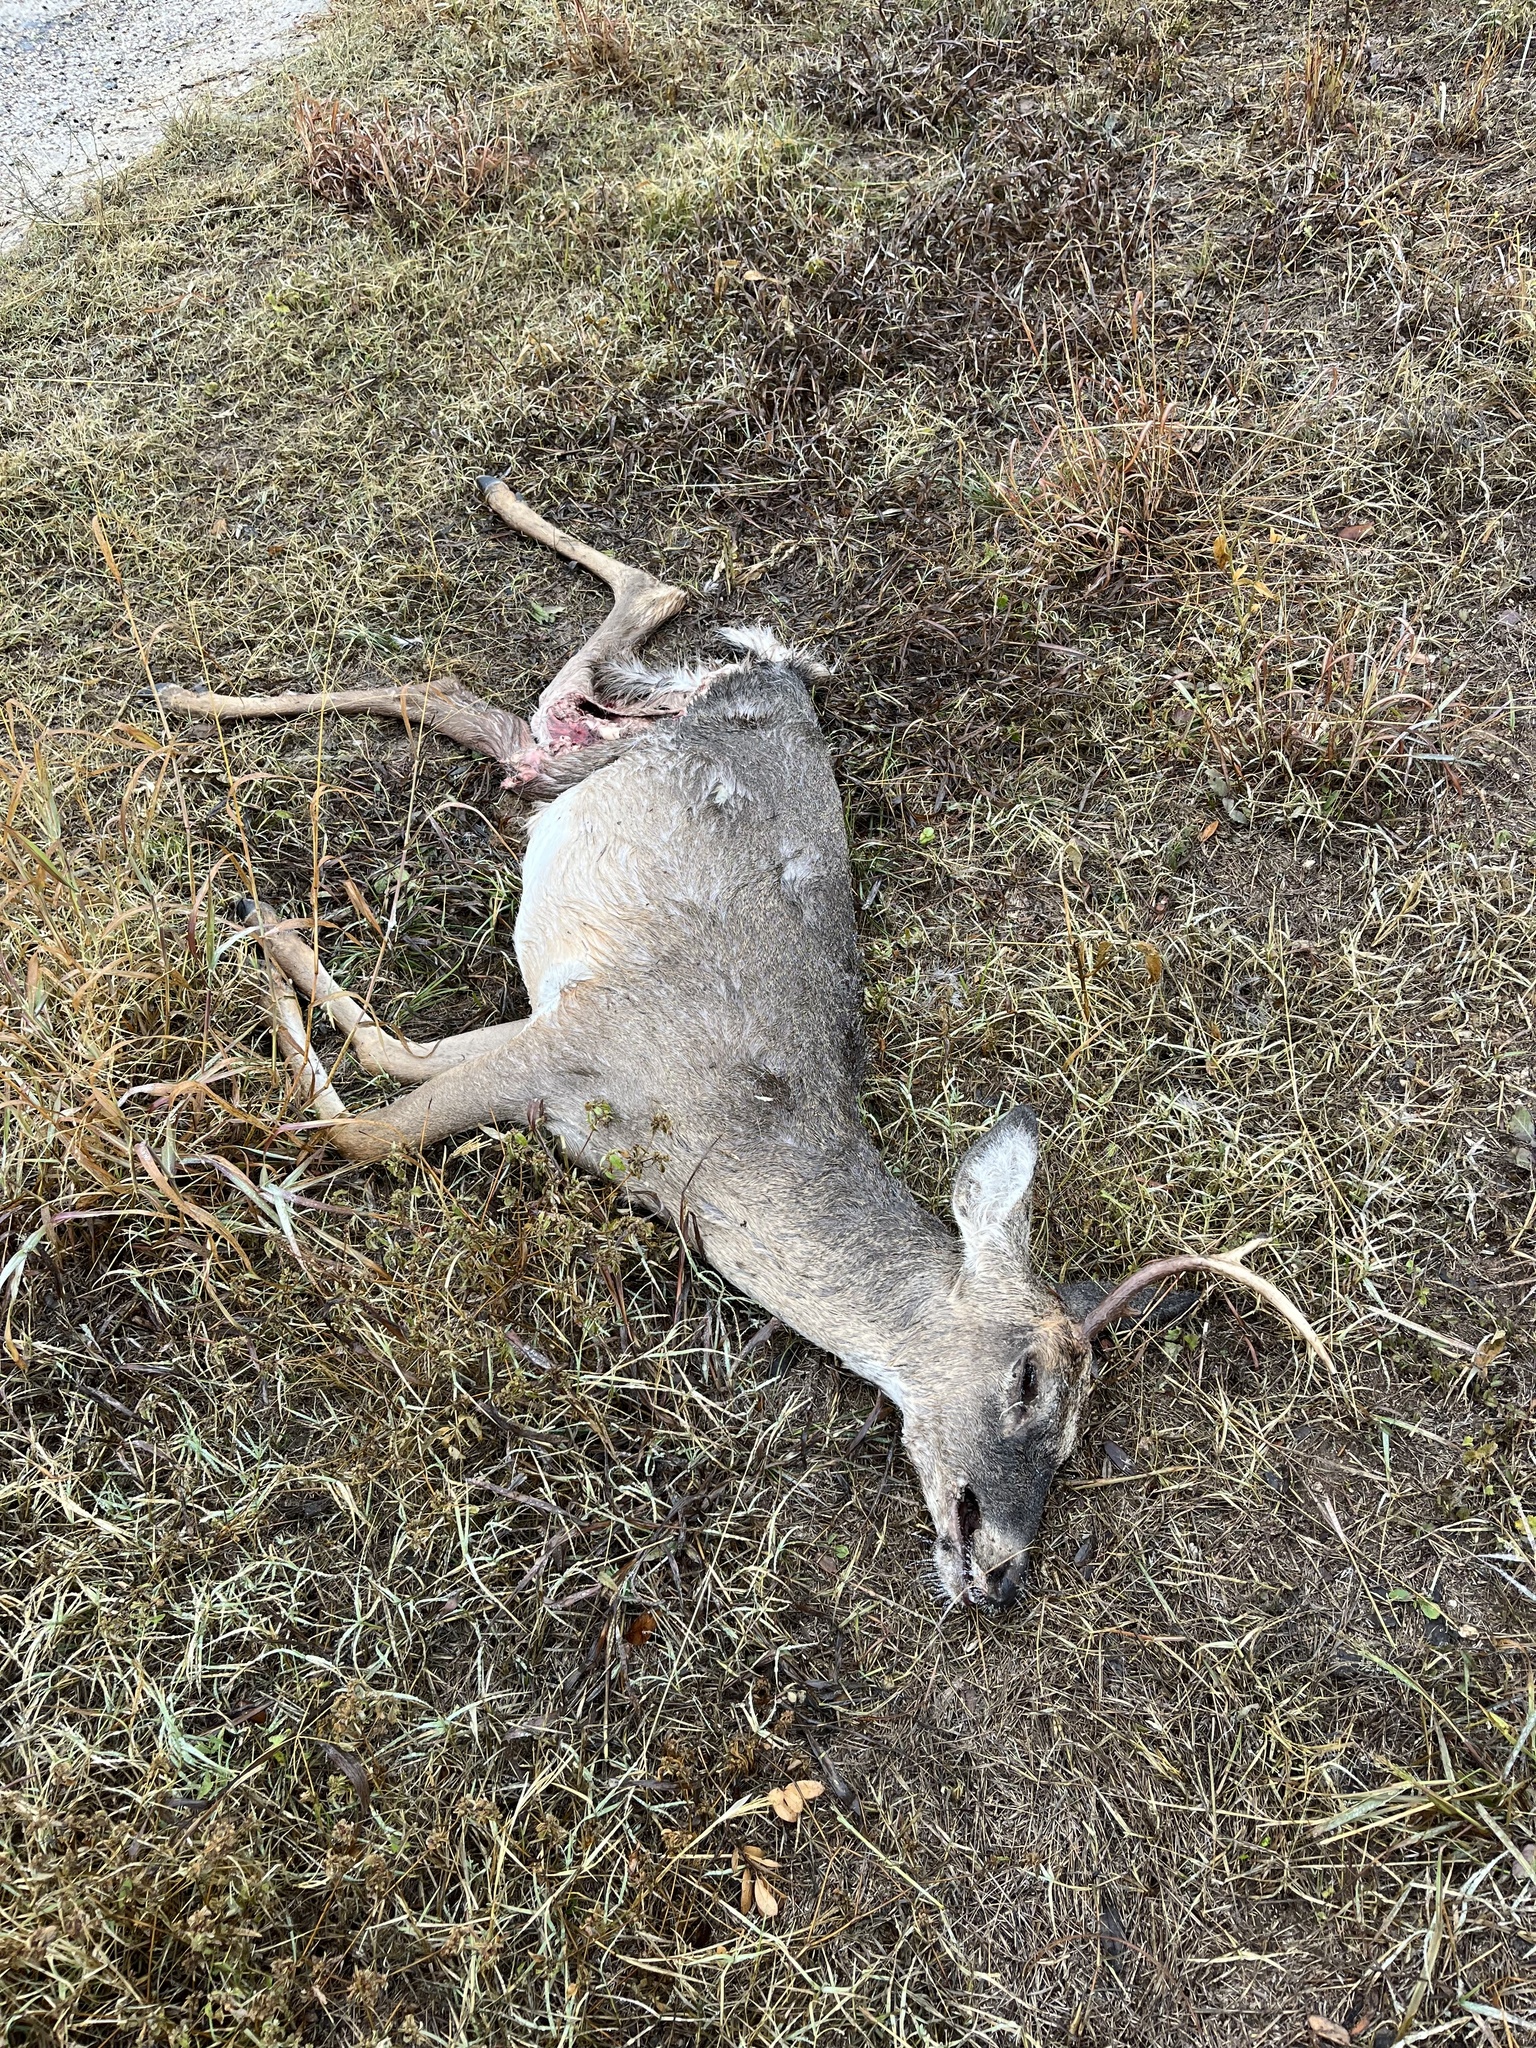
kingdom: Animalia
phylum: Chordata
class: Mammalia
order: Artiodactyla
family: Cervidae
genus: Odocoileus
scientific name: Odocoileus virginianus
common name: White-tailed deer
